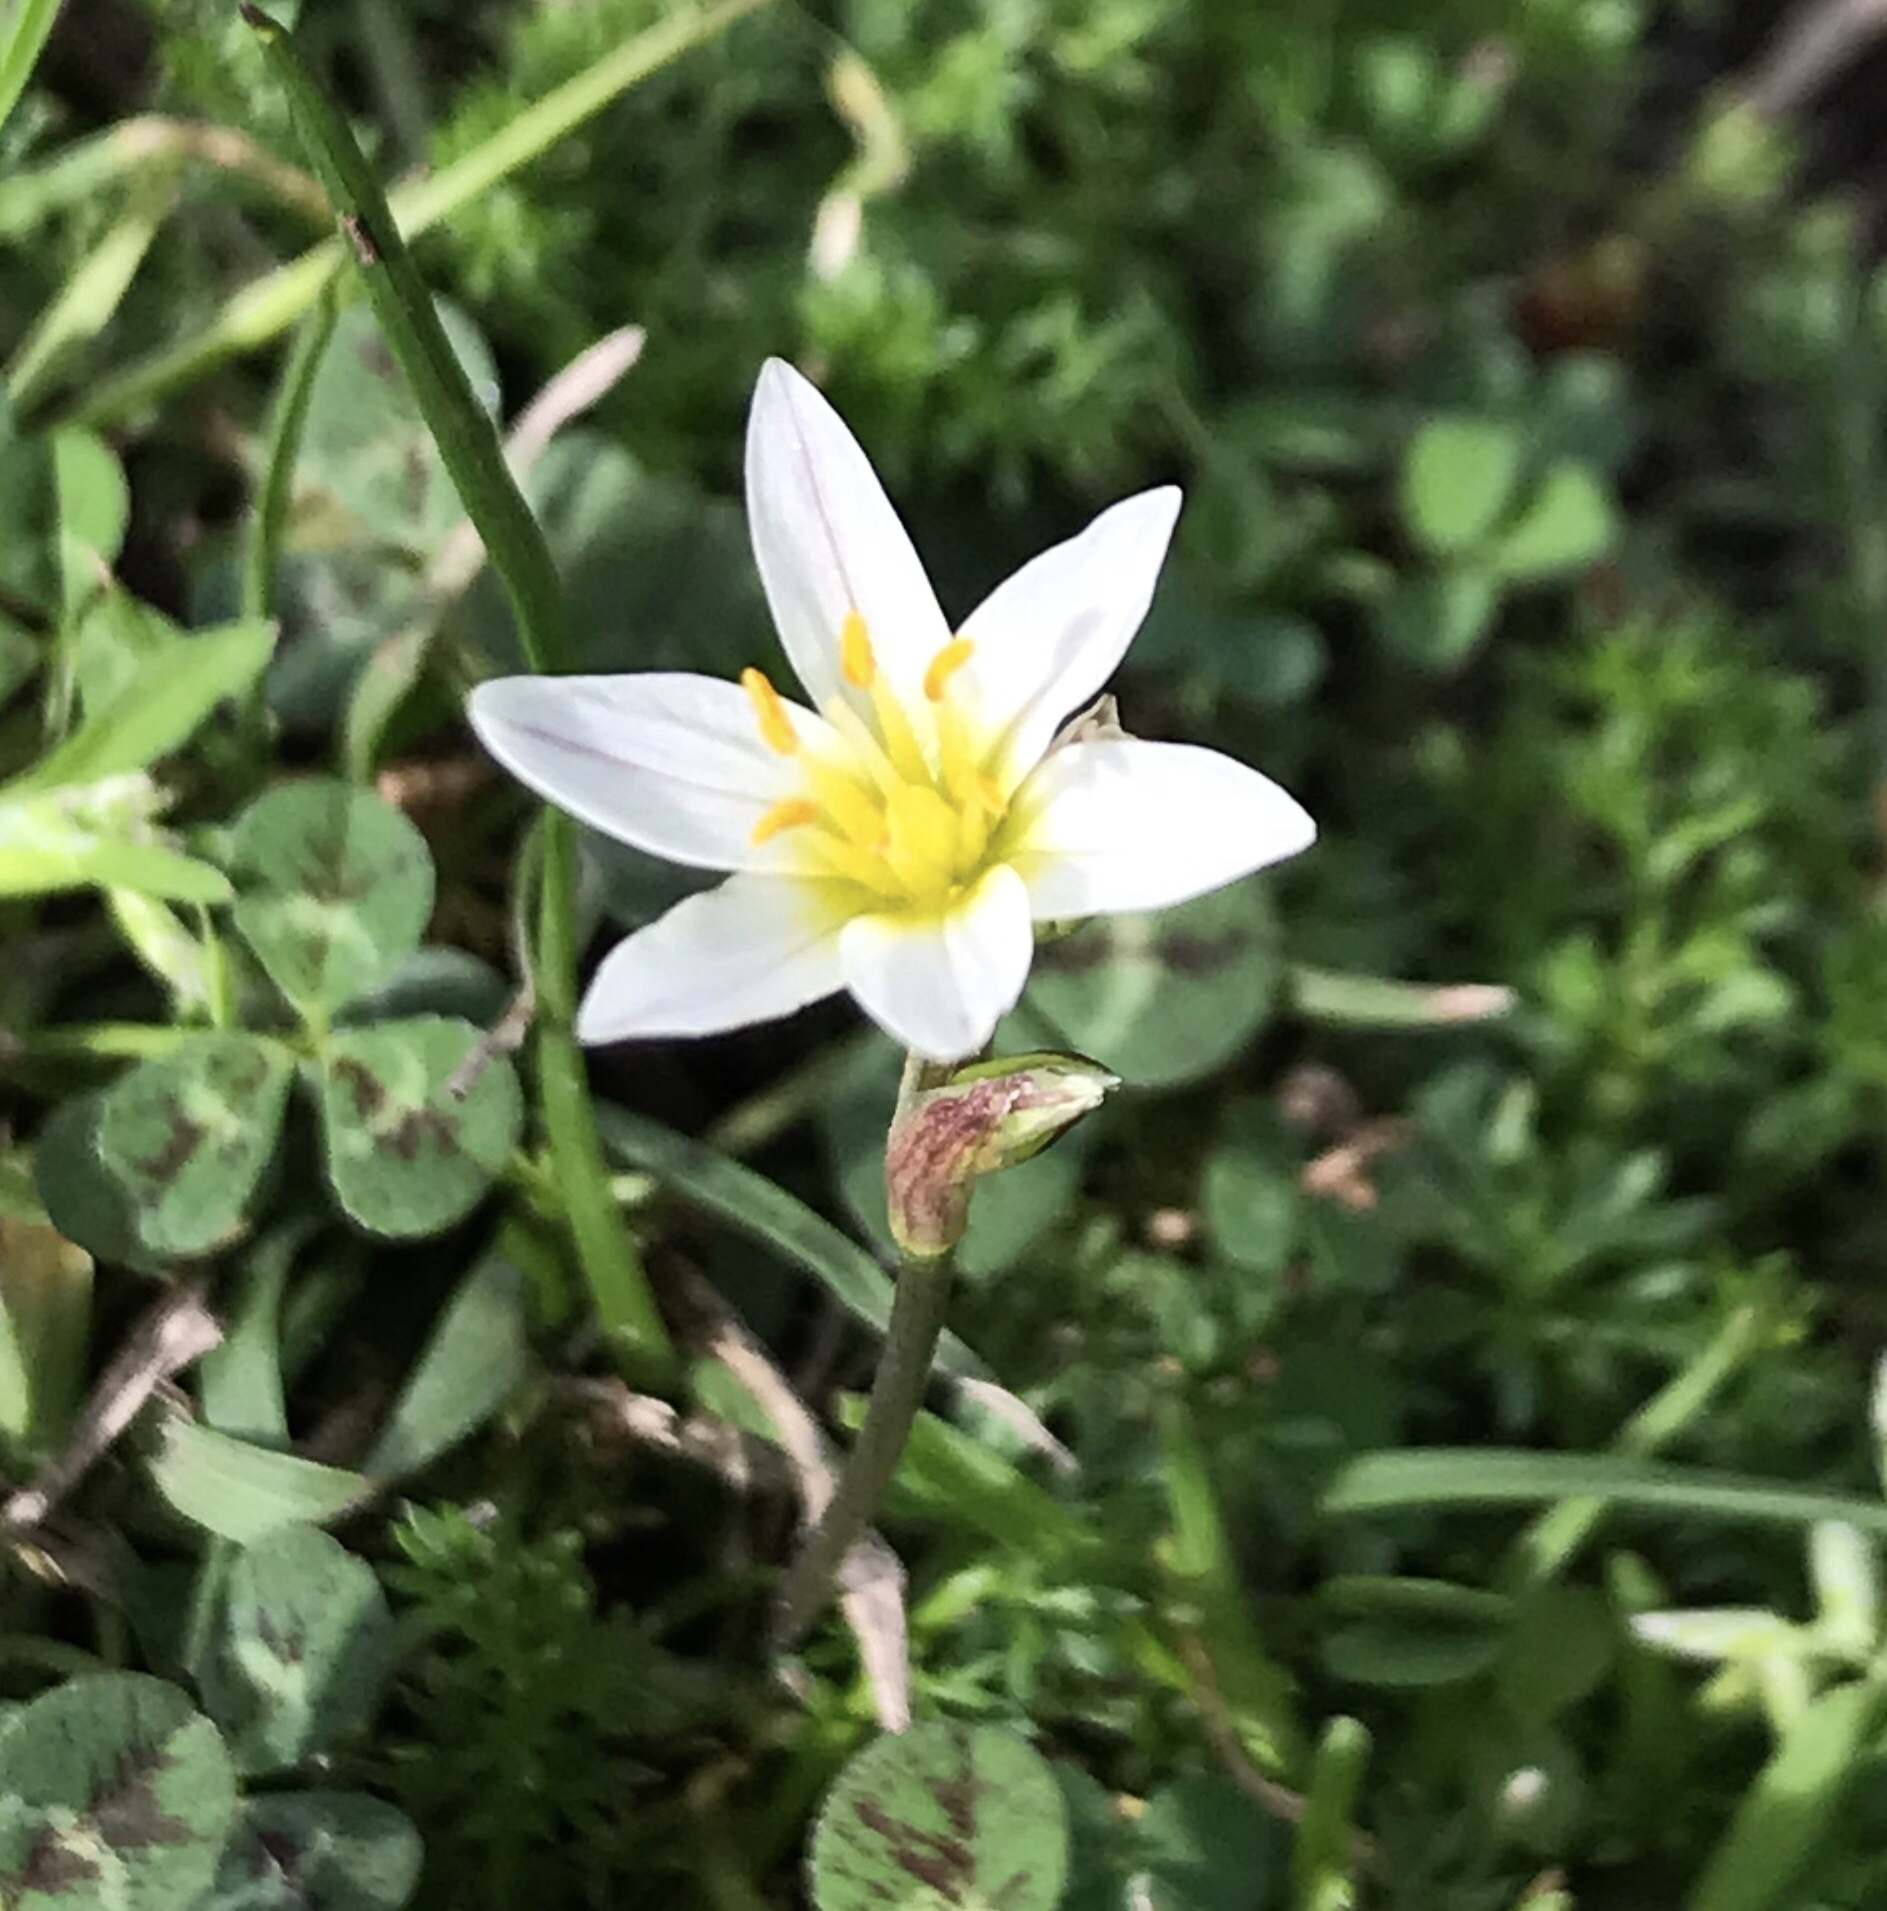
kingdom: Plantae
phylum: Tracheophyta
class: Liliopsida
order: Asparagales
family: Amaryllidaceae
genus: Nothoscordum
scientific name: Nothoscordum bivalve
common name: Crow-poison
